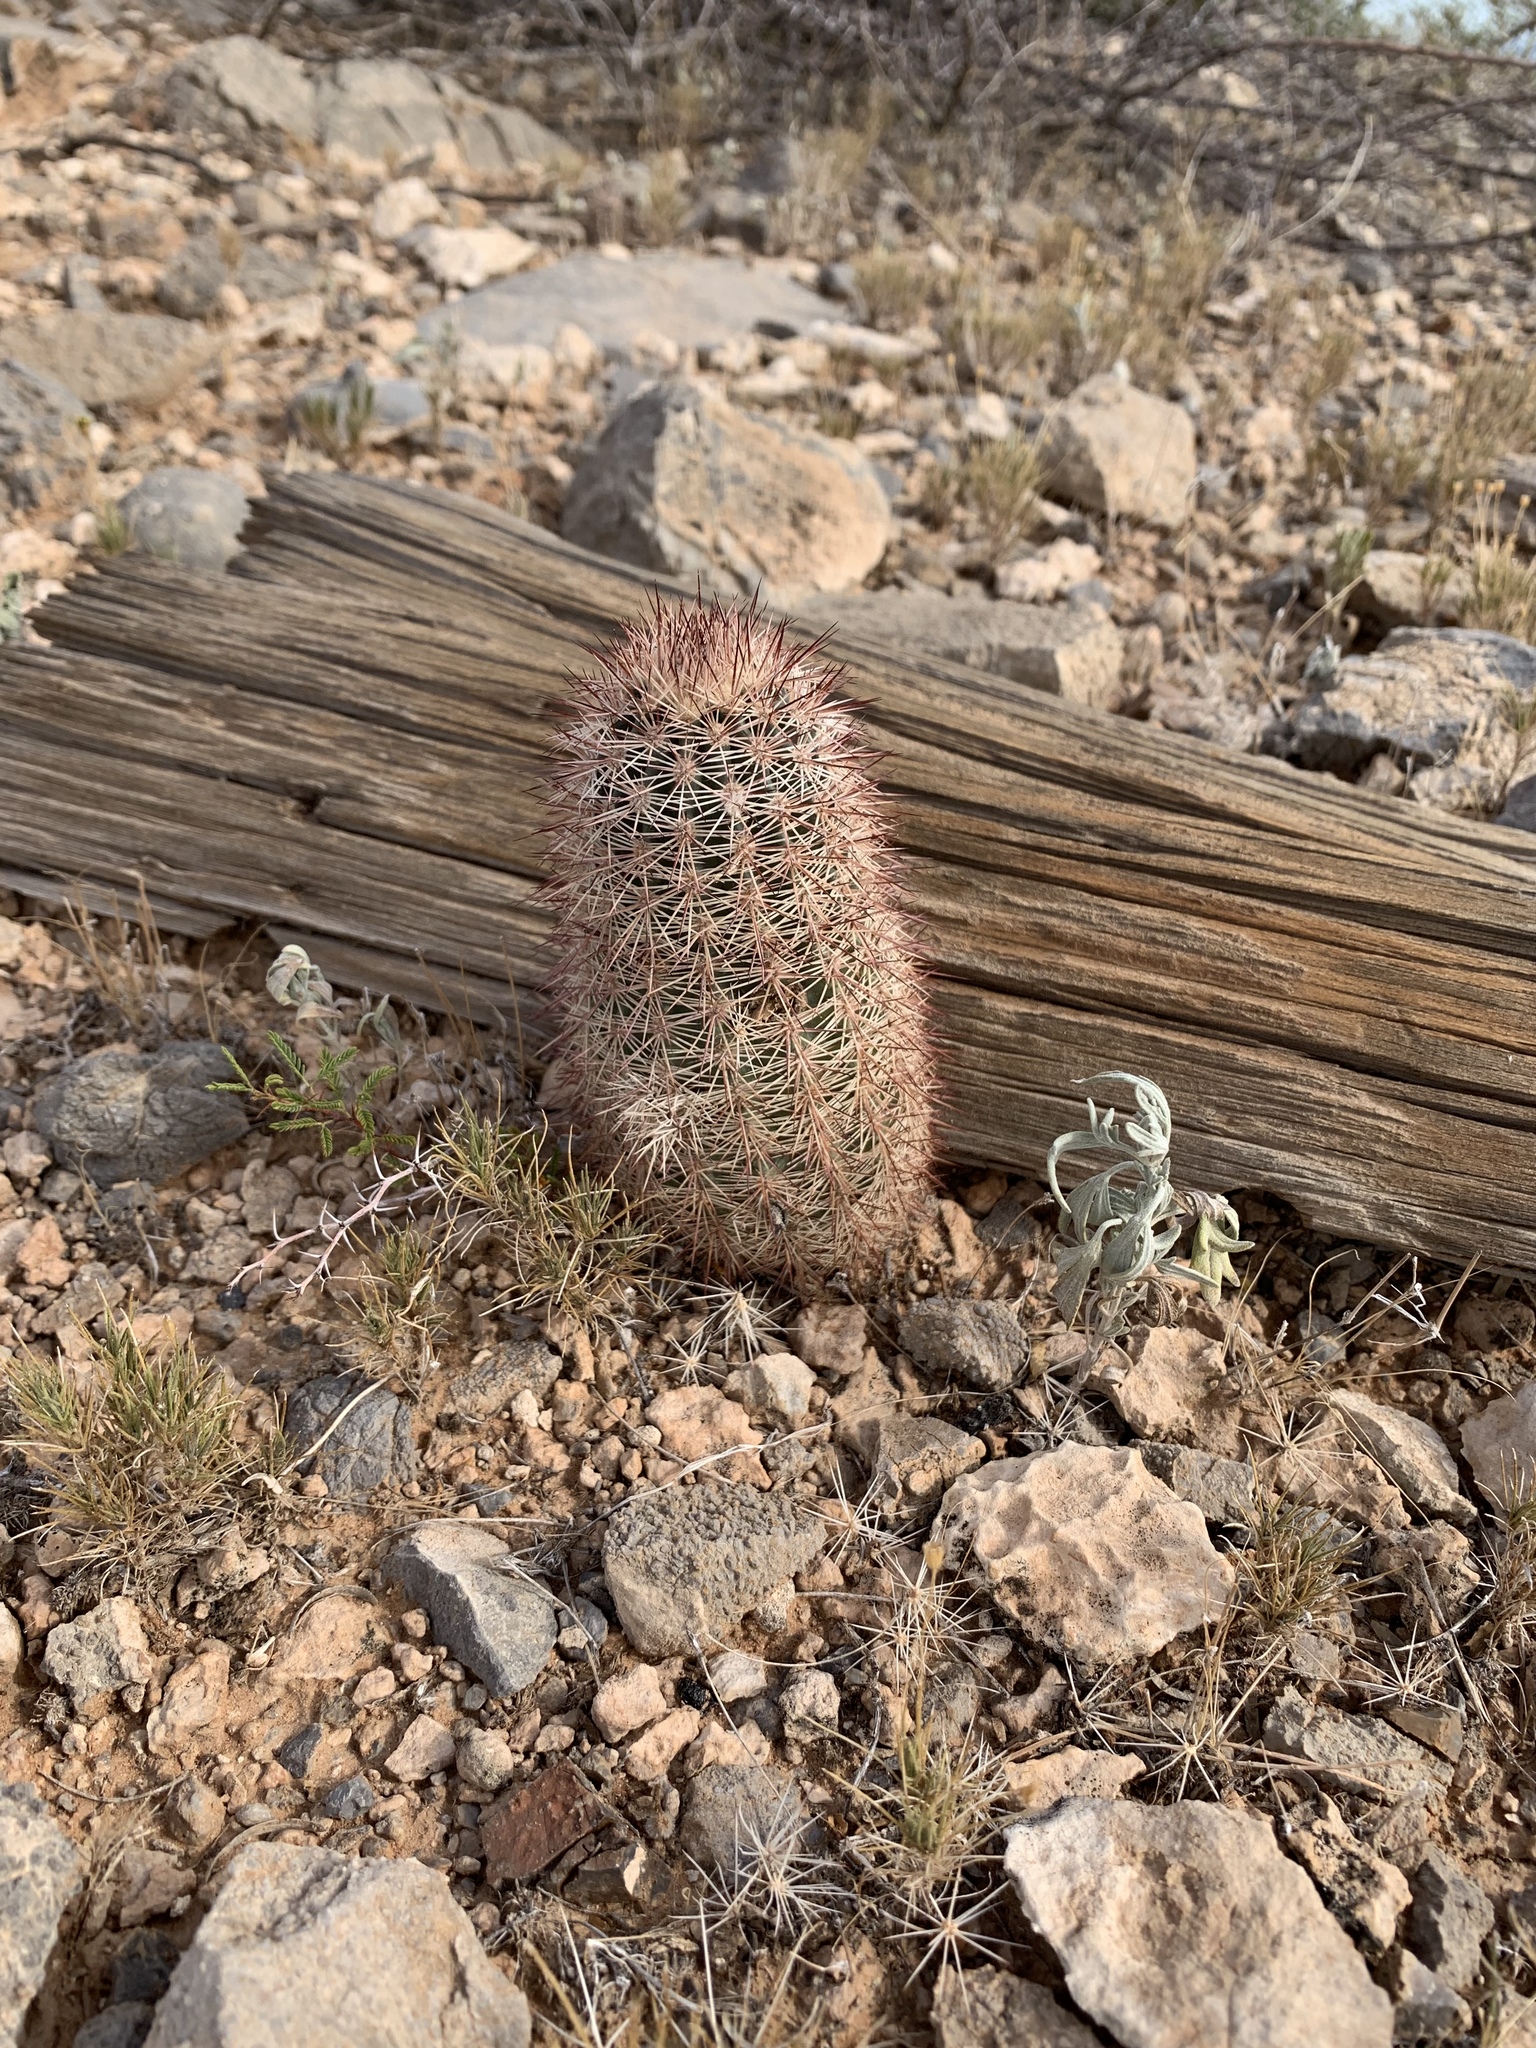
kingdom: Plantae
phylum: Tracheophyta
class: Magnoliopsida
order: Caryophyllales
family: Cactaceae
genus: Echinocereus
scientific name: Echinocereus roetteri
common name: Lloyd's hedgehog cactus
